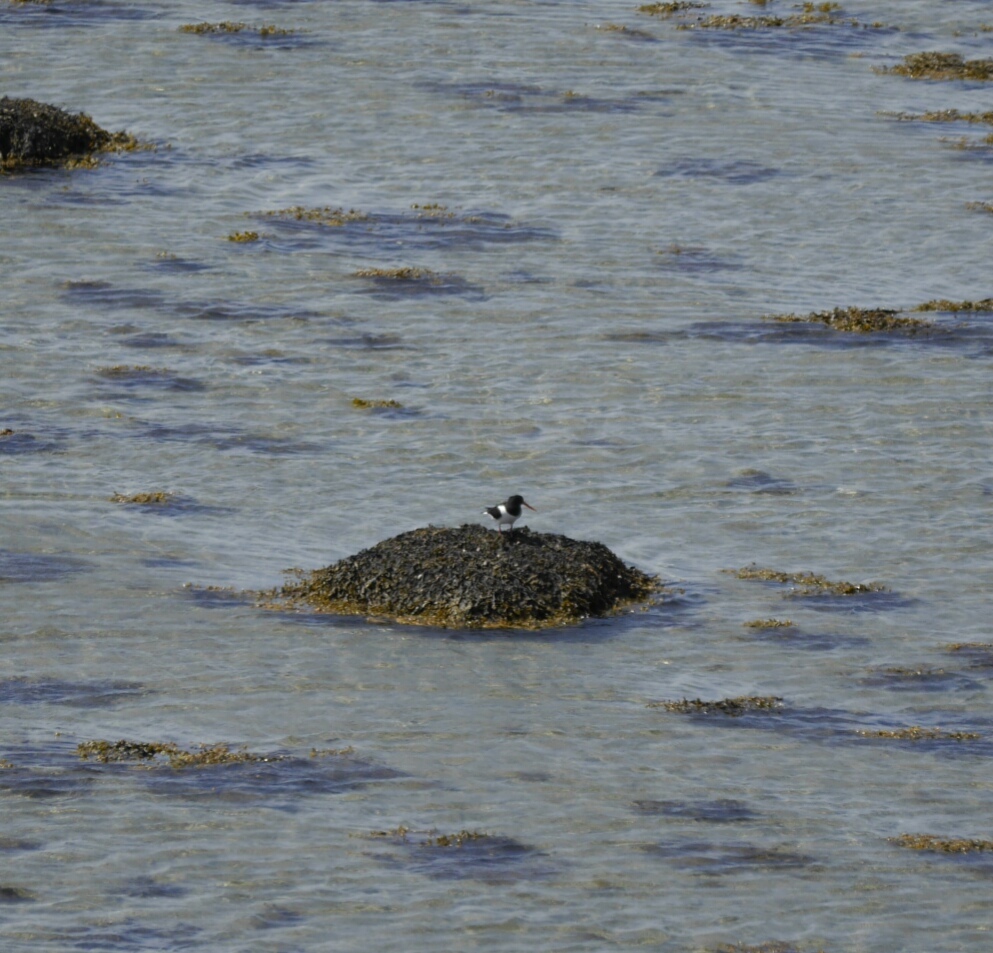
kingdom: Animalia
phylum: Chordata
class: Aves
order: Charadriiformes
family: Haematopodidae
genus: Haematopus
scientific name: Haematopus ostralegus
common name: Eurasian oystercatcher
